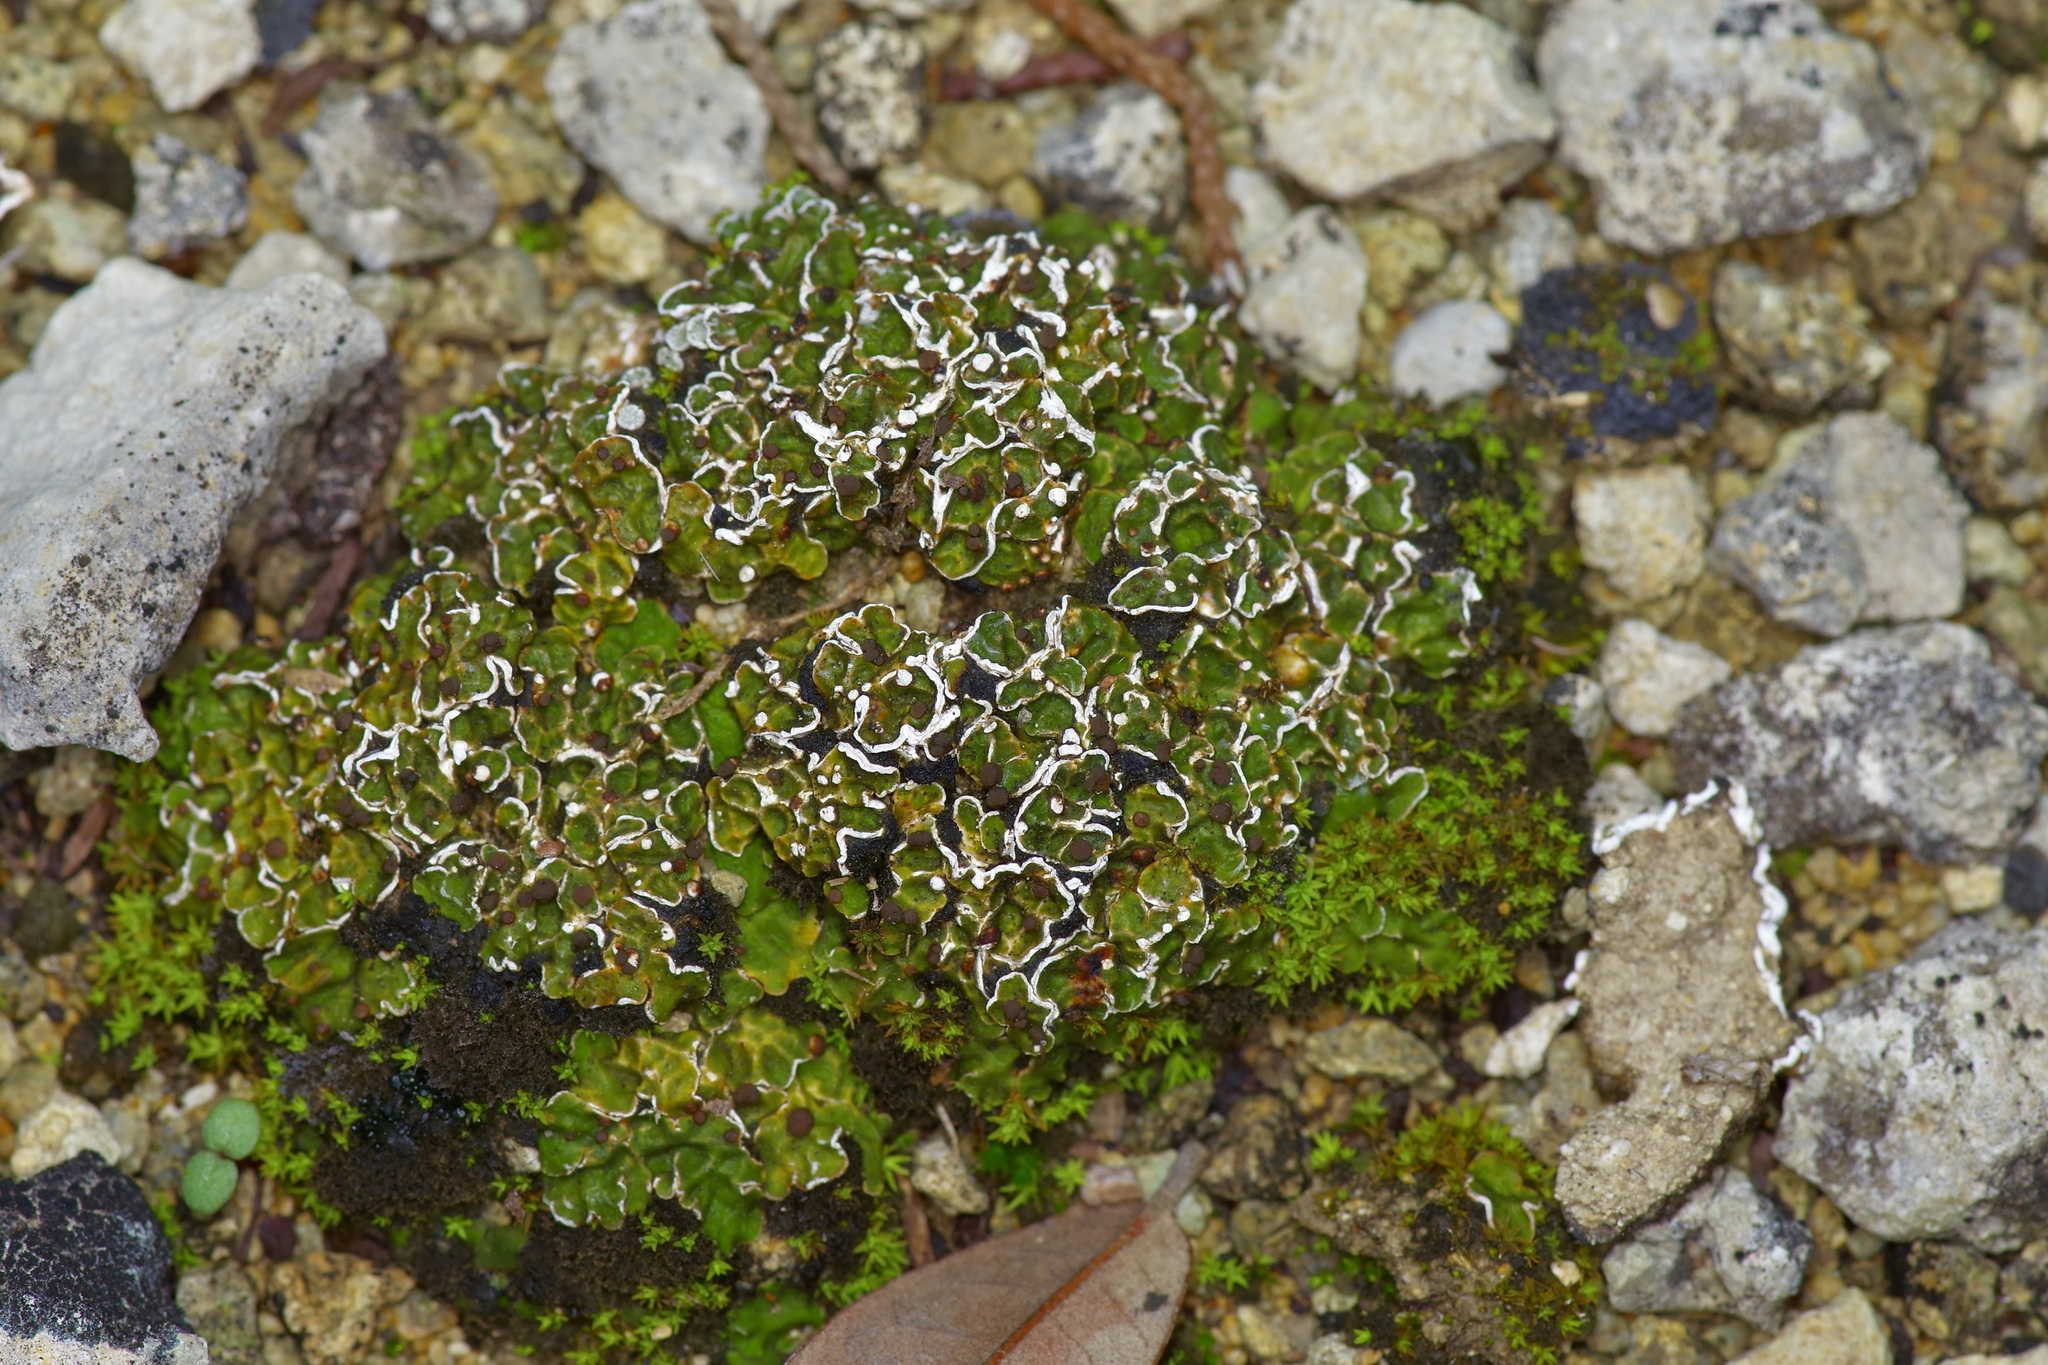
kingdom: Fungi
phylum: Ascomycota
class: Lecanoromycetes
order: Lecanorales
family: Psoraceae
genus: Psora
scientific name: Psora pseudorussellii
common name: Bordered scale lichen
